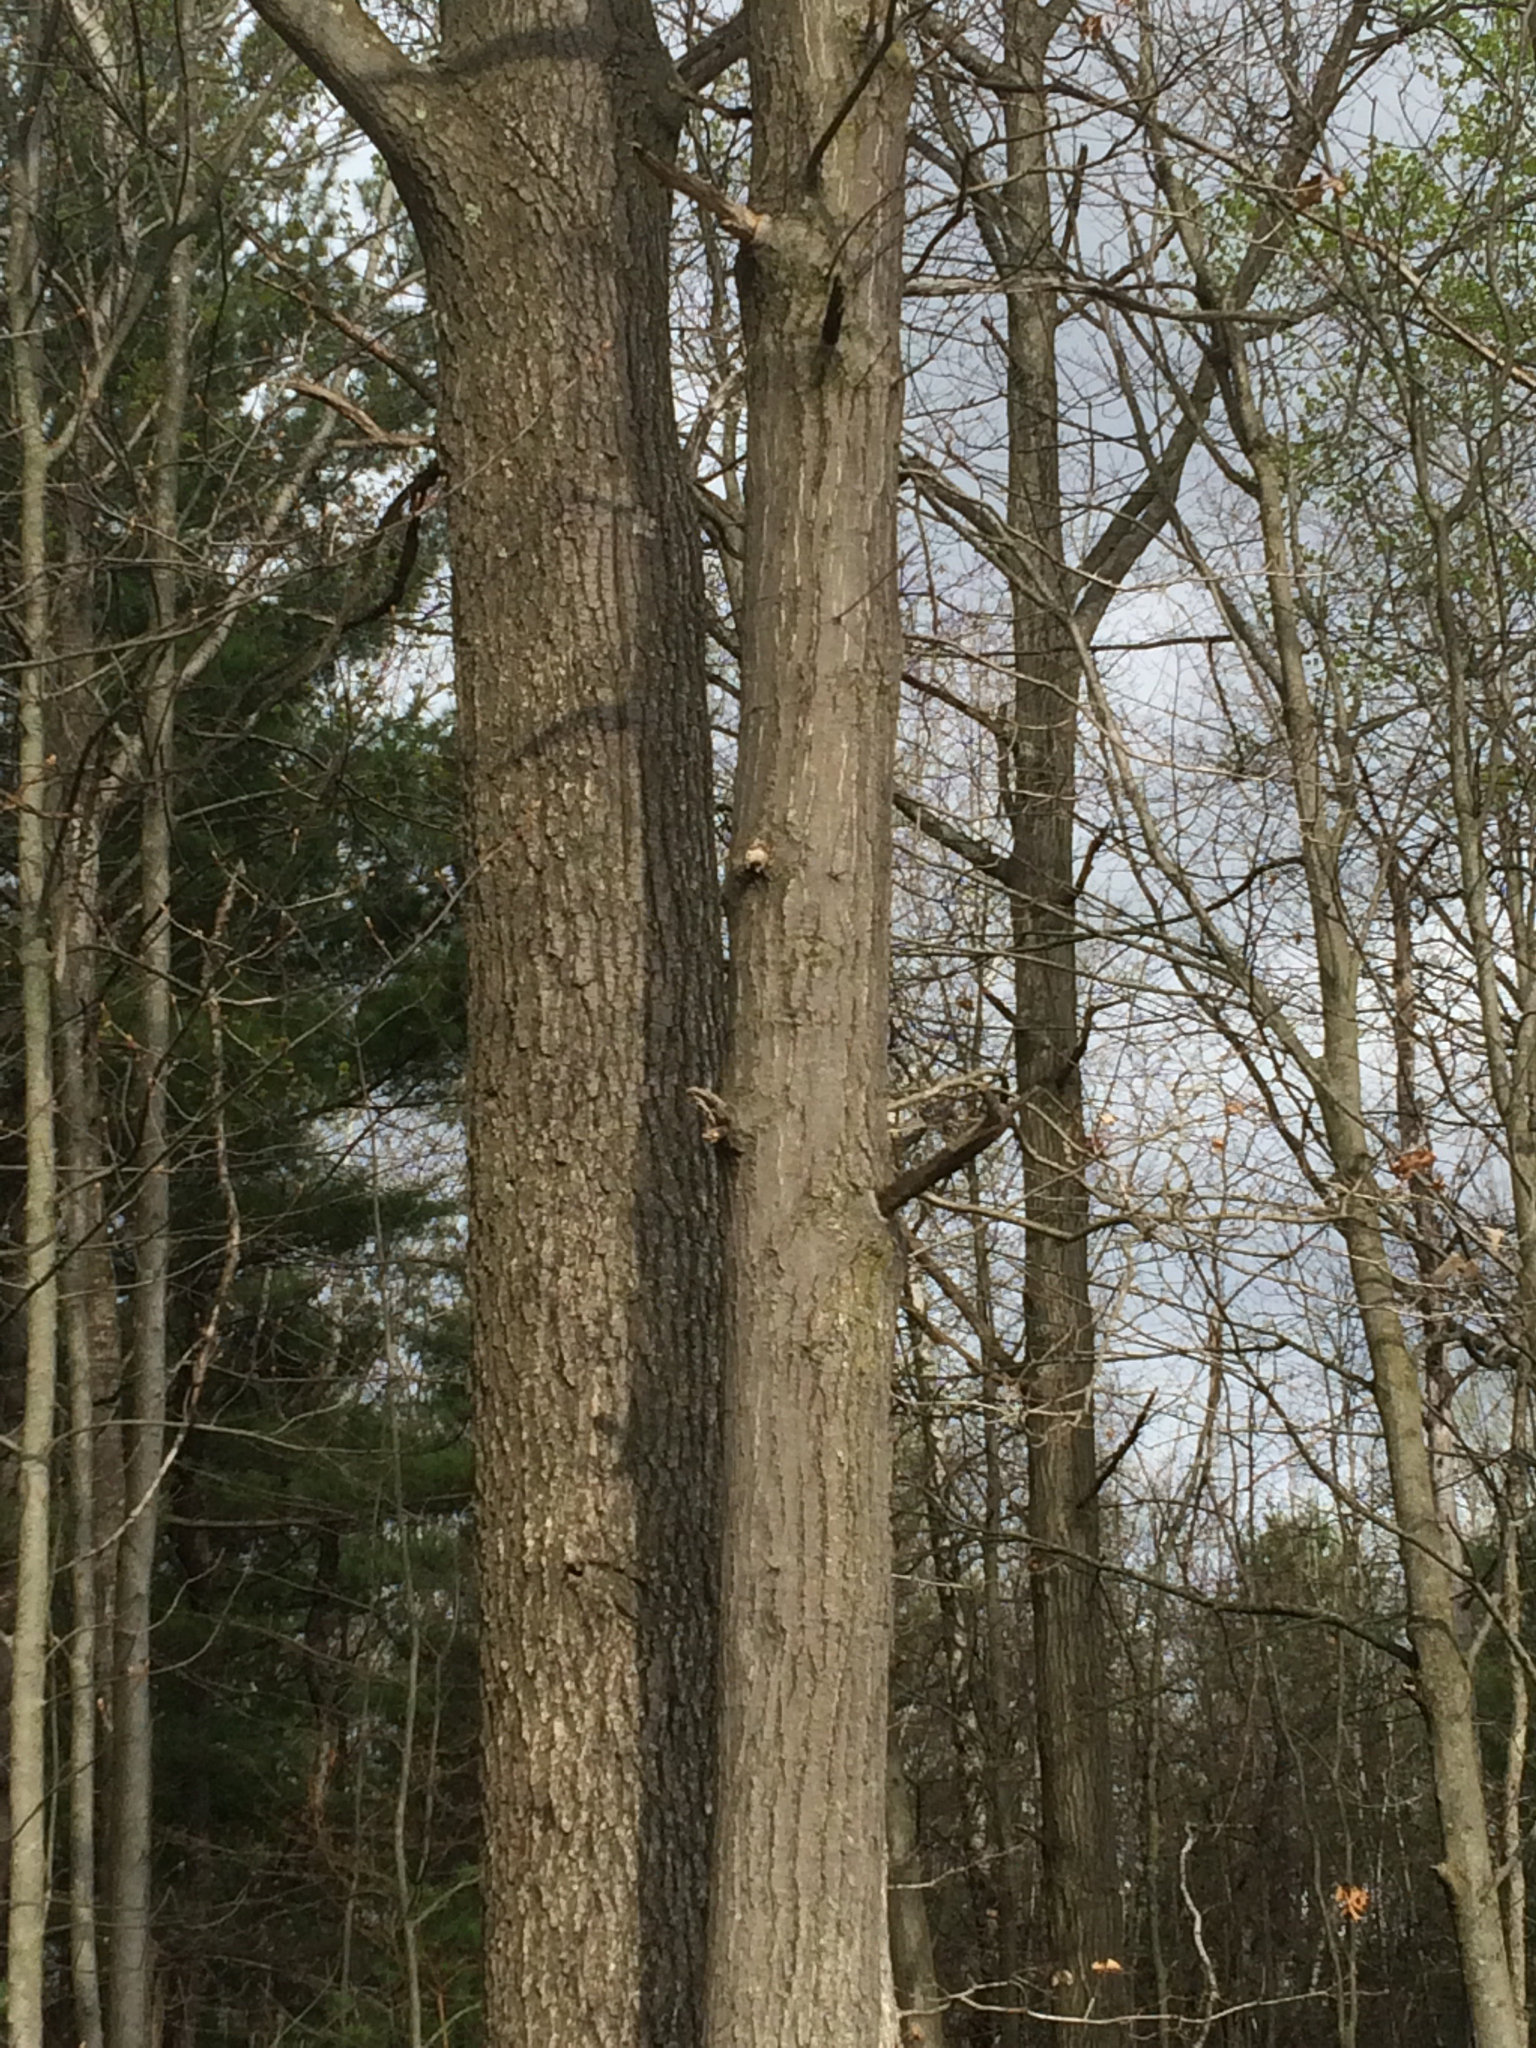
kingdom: Plantae
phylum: Tracheophyta
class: Magnoliopsida
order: Fagales
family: Fagaceae
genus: Quercus
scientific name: Quercus rubra
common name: Red oak
